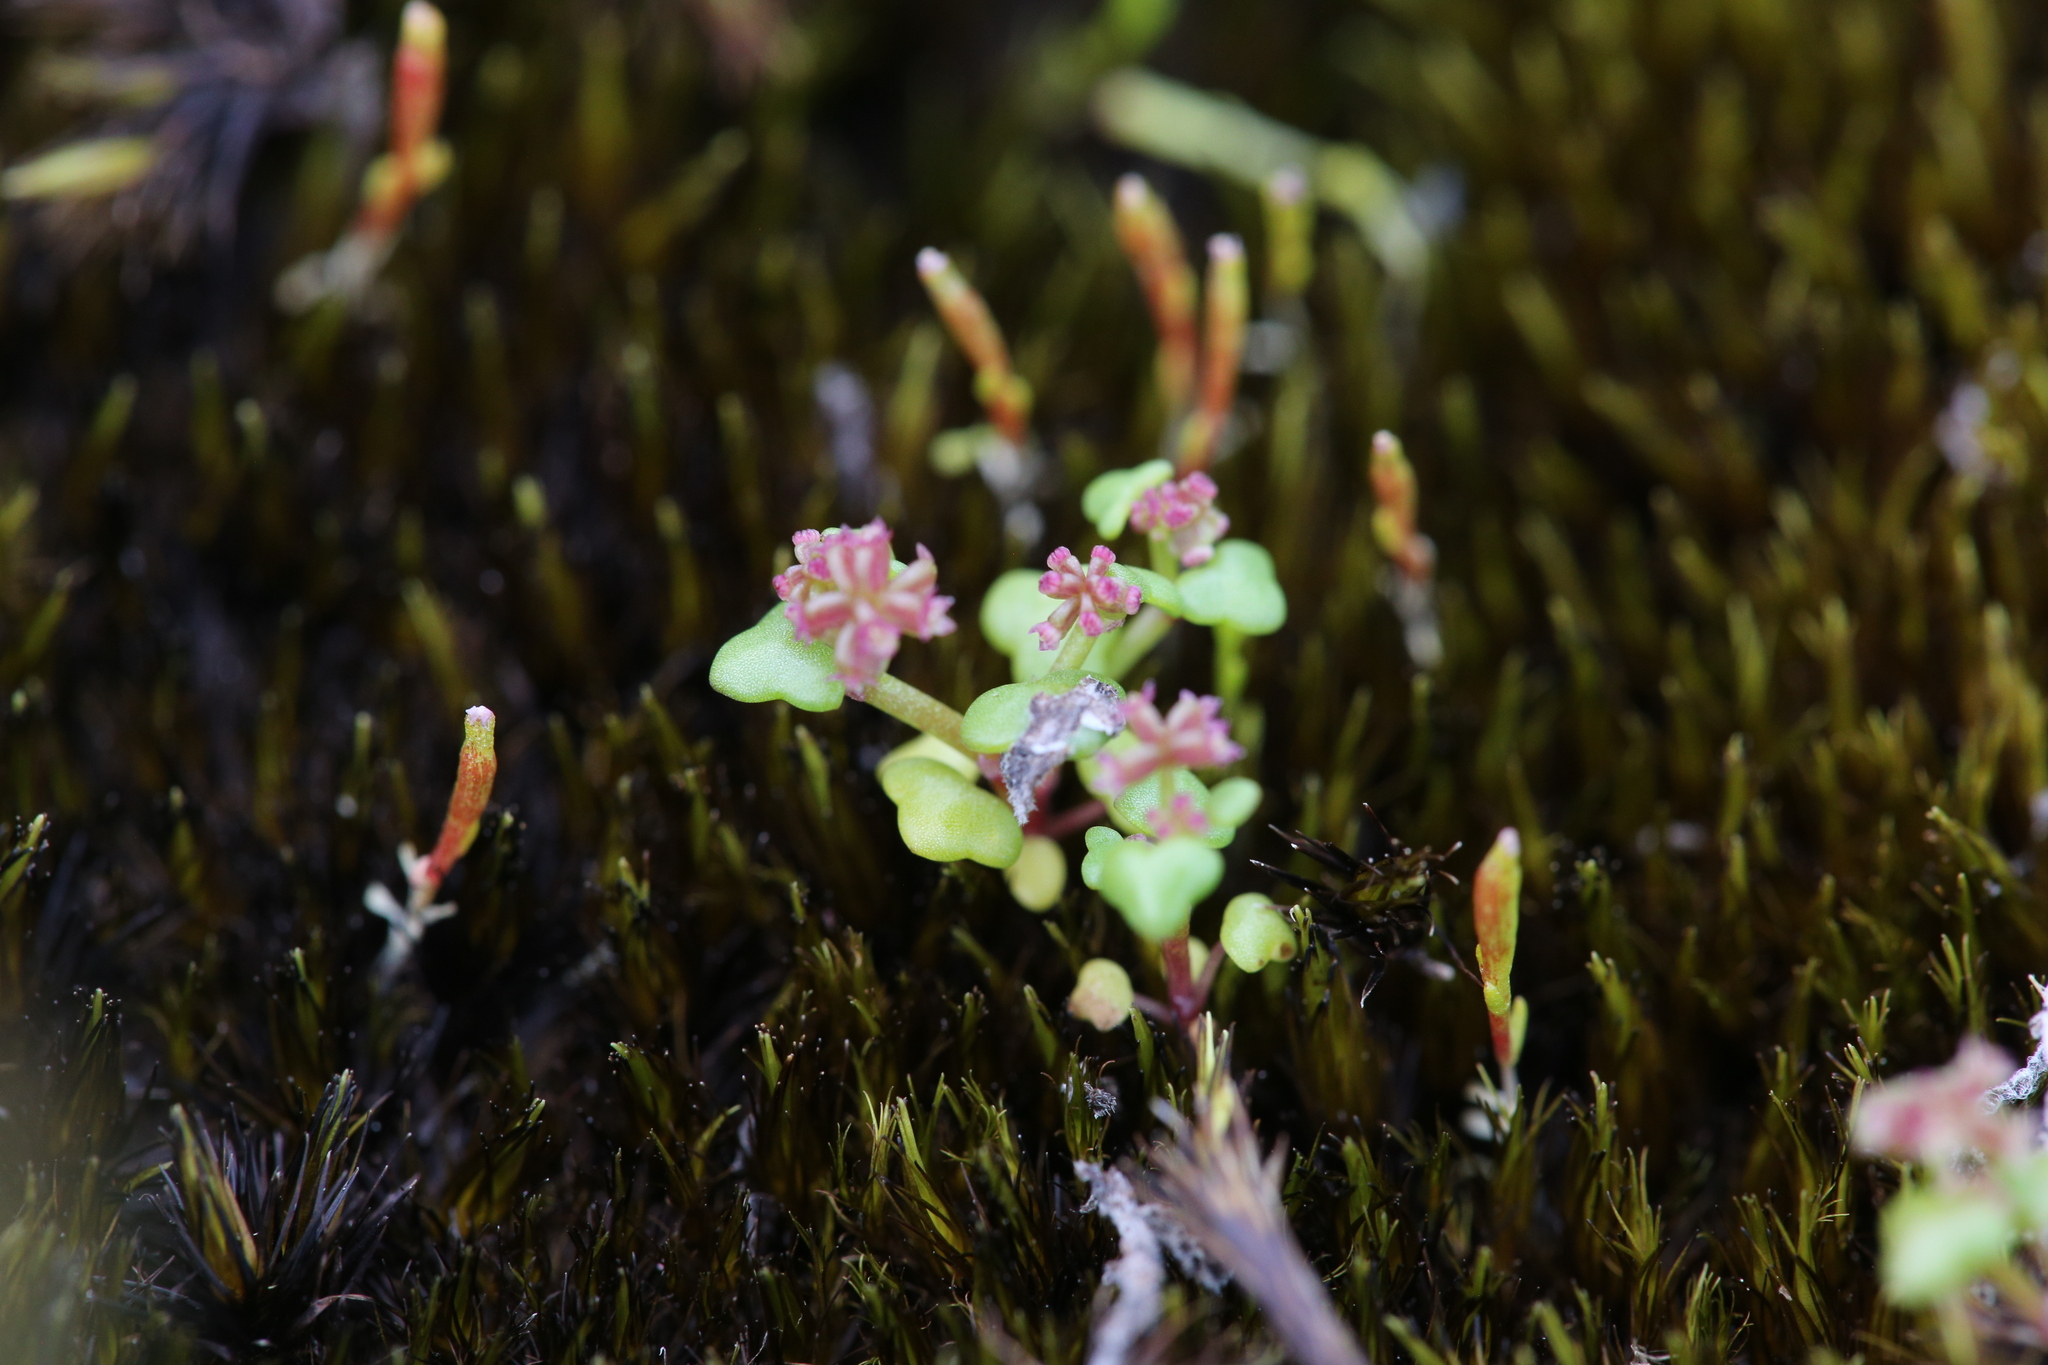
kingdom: Plantae
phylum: Tracheophyta
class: Magnoliopsida
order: Apiales
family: Araliaceae
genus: Hydrocotyle
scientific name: Hydrocotyle alata
